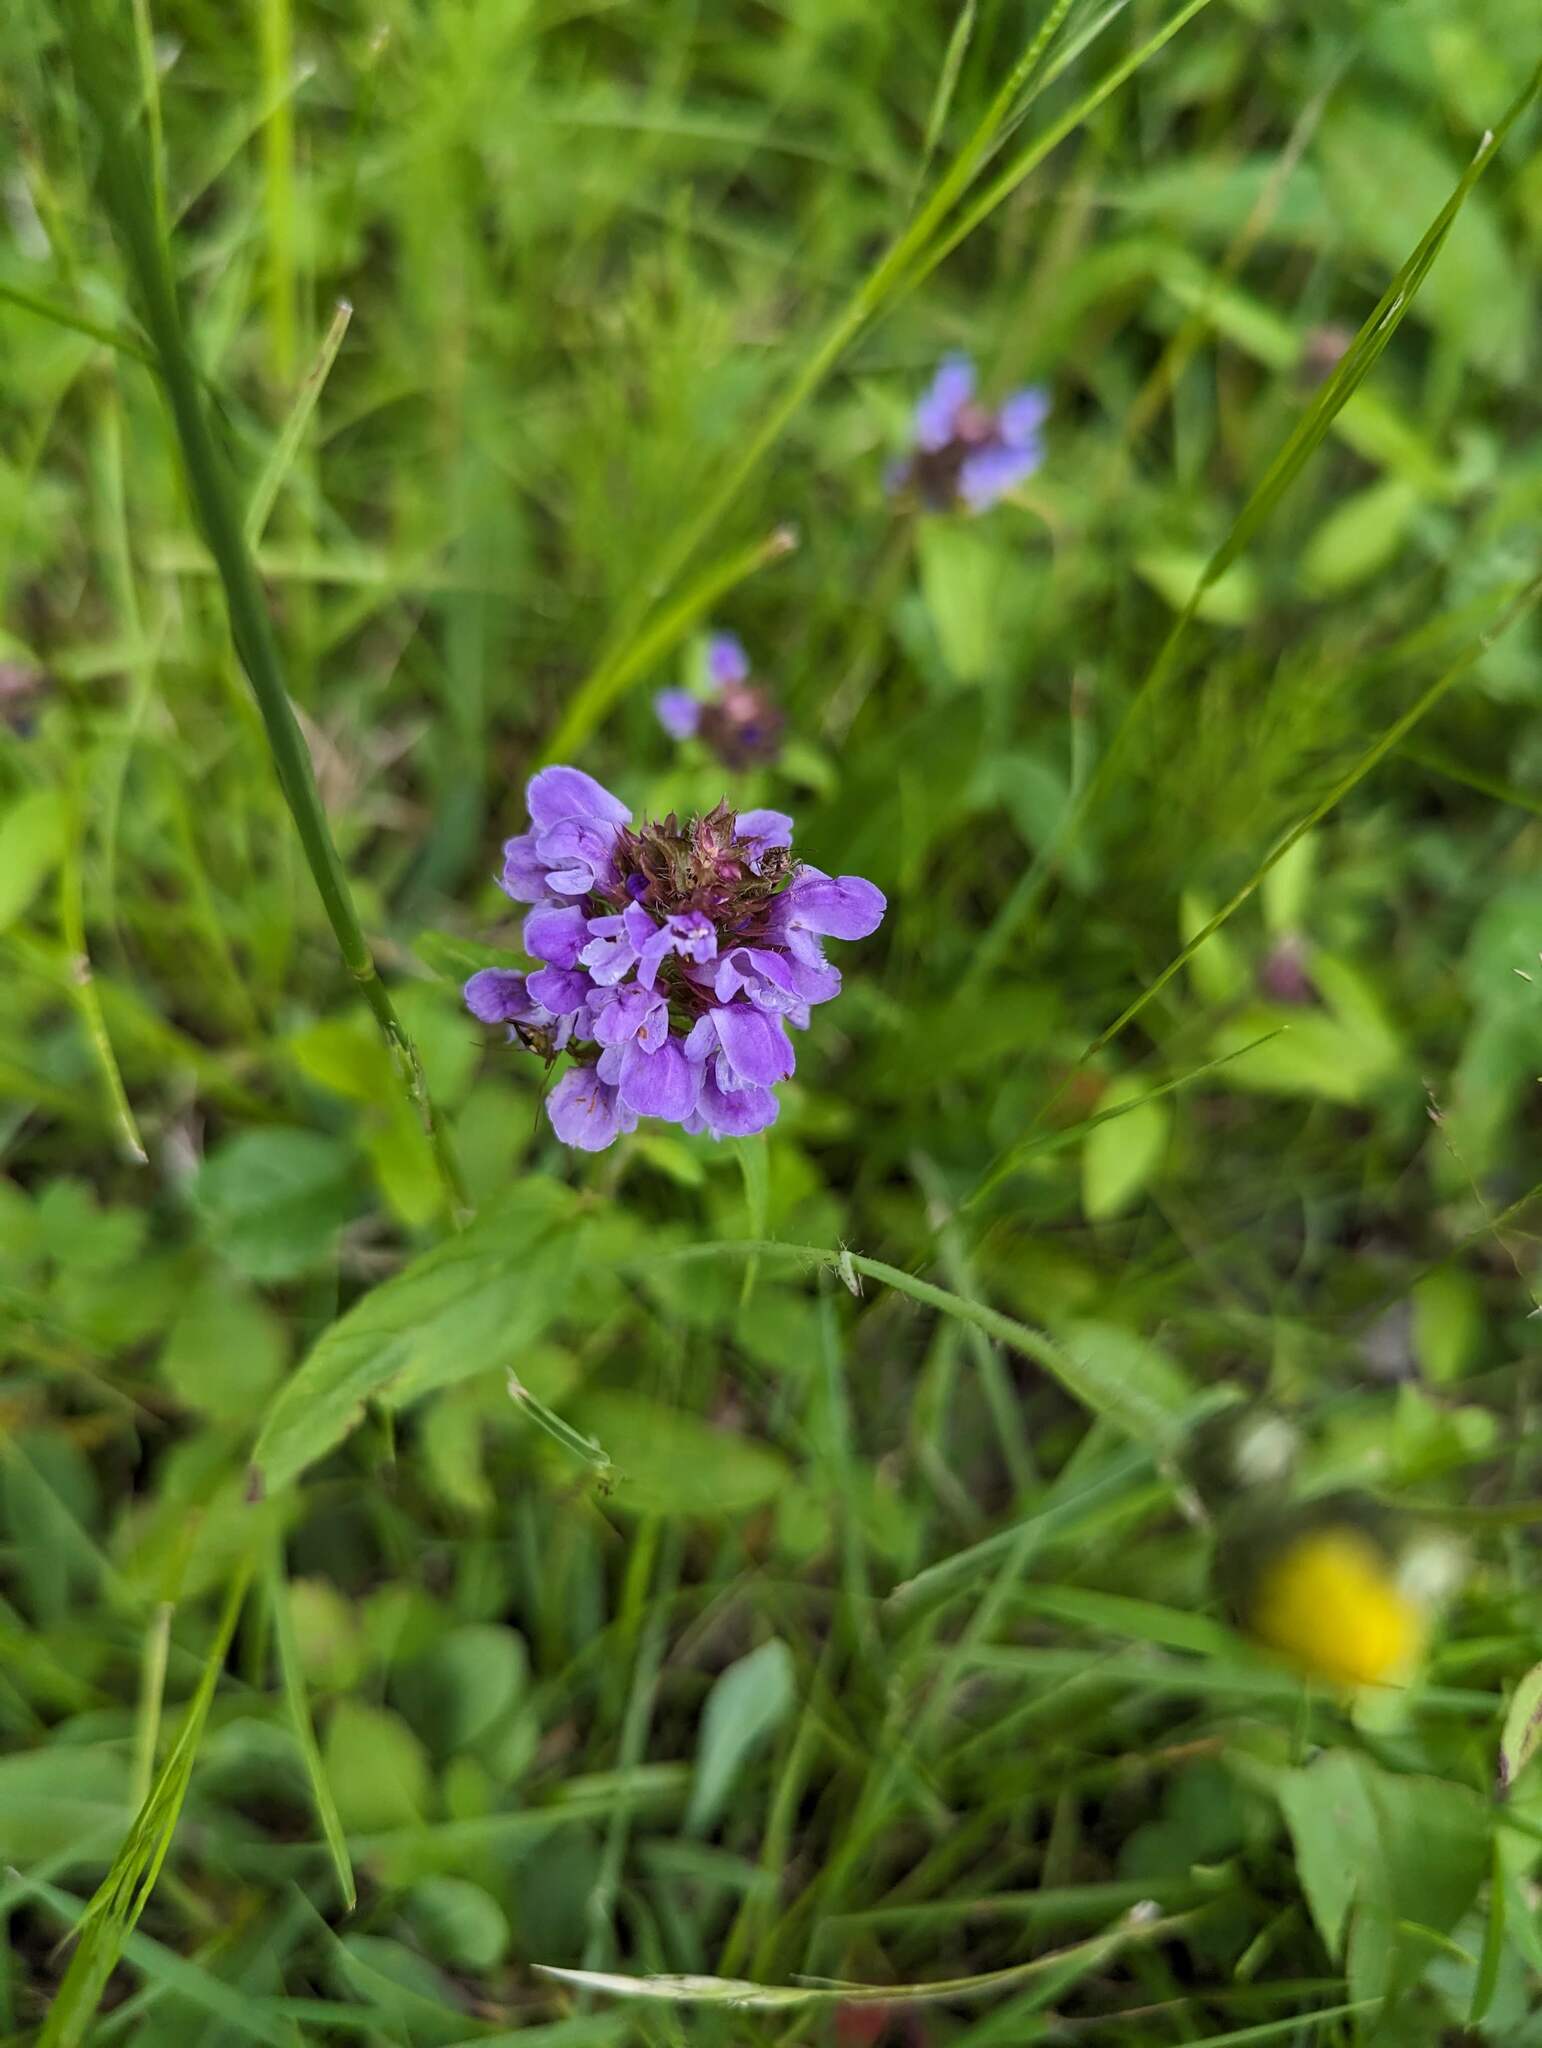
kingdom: Plantae
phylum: Tracheophyta
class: Magnoliopsida
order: Lamiales
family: Lamiaceae
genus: Prunella
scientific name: Prunella vulgaris
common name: Heal-all
